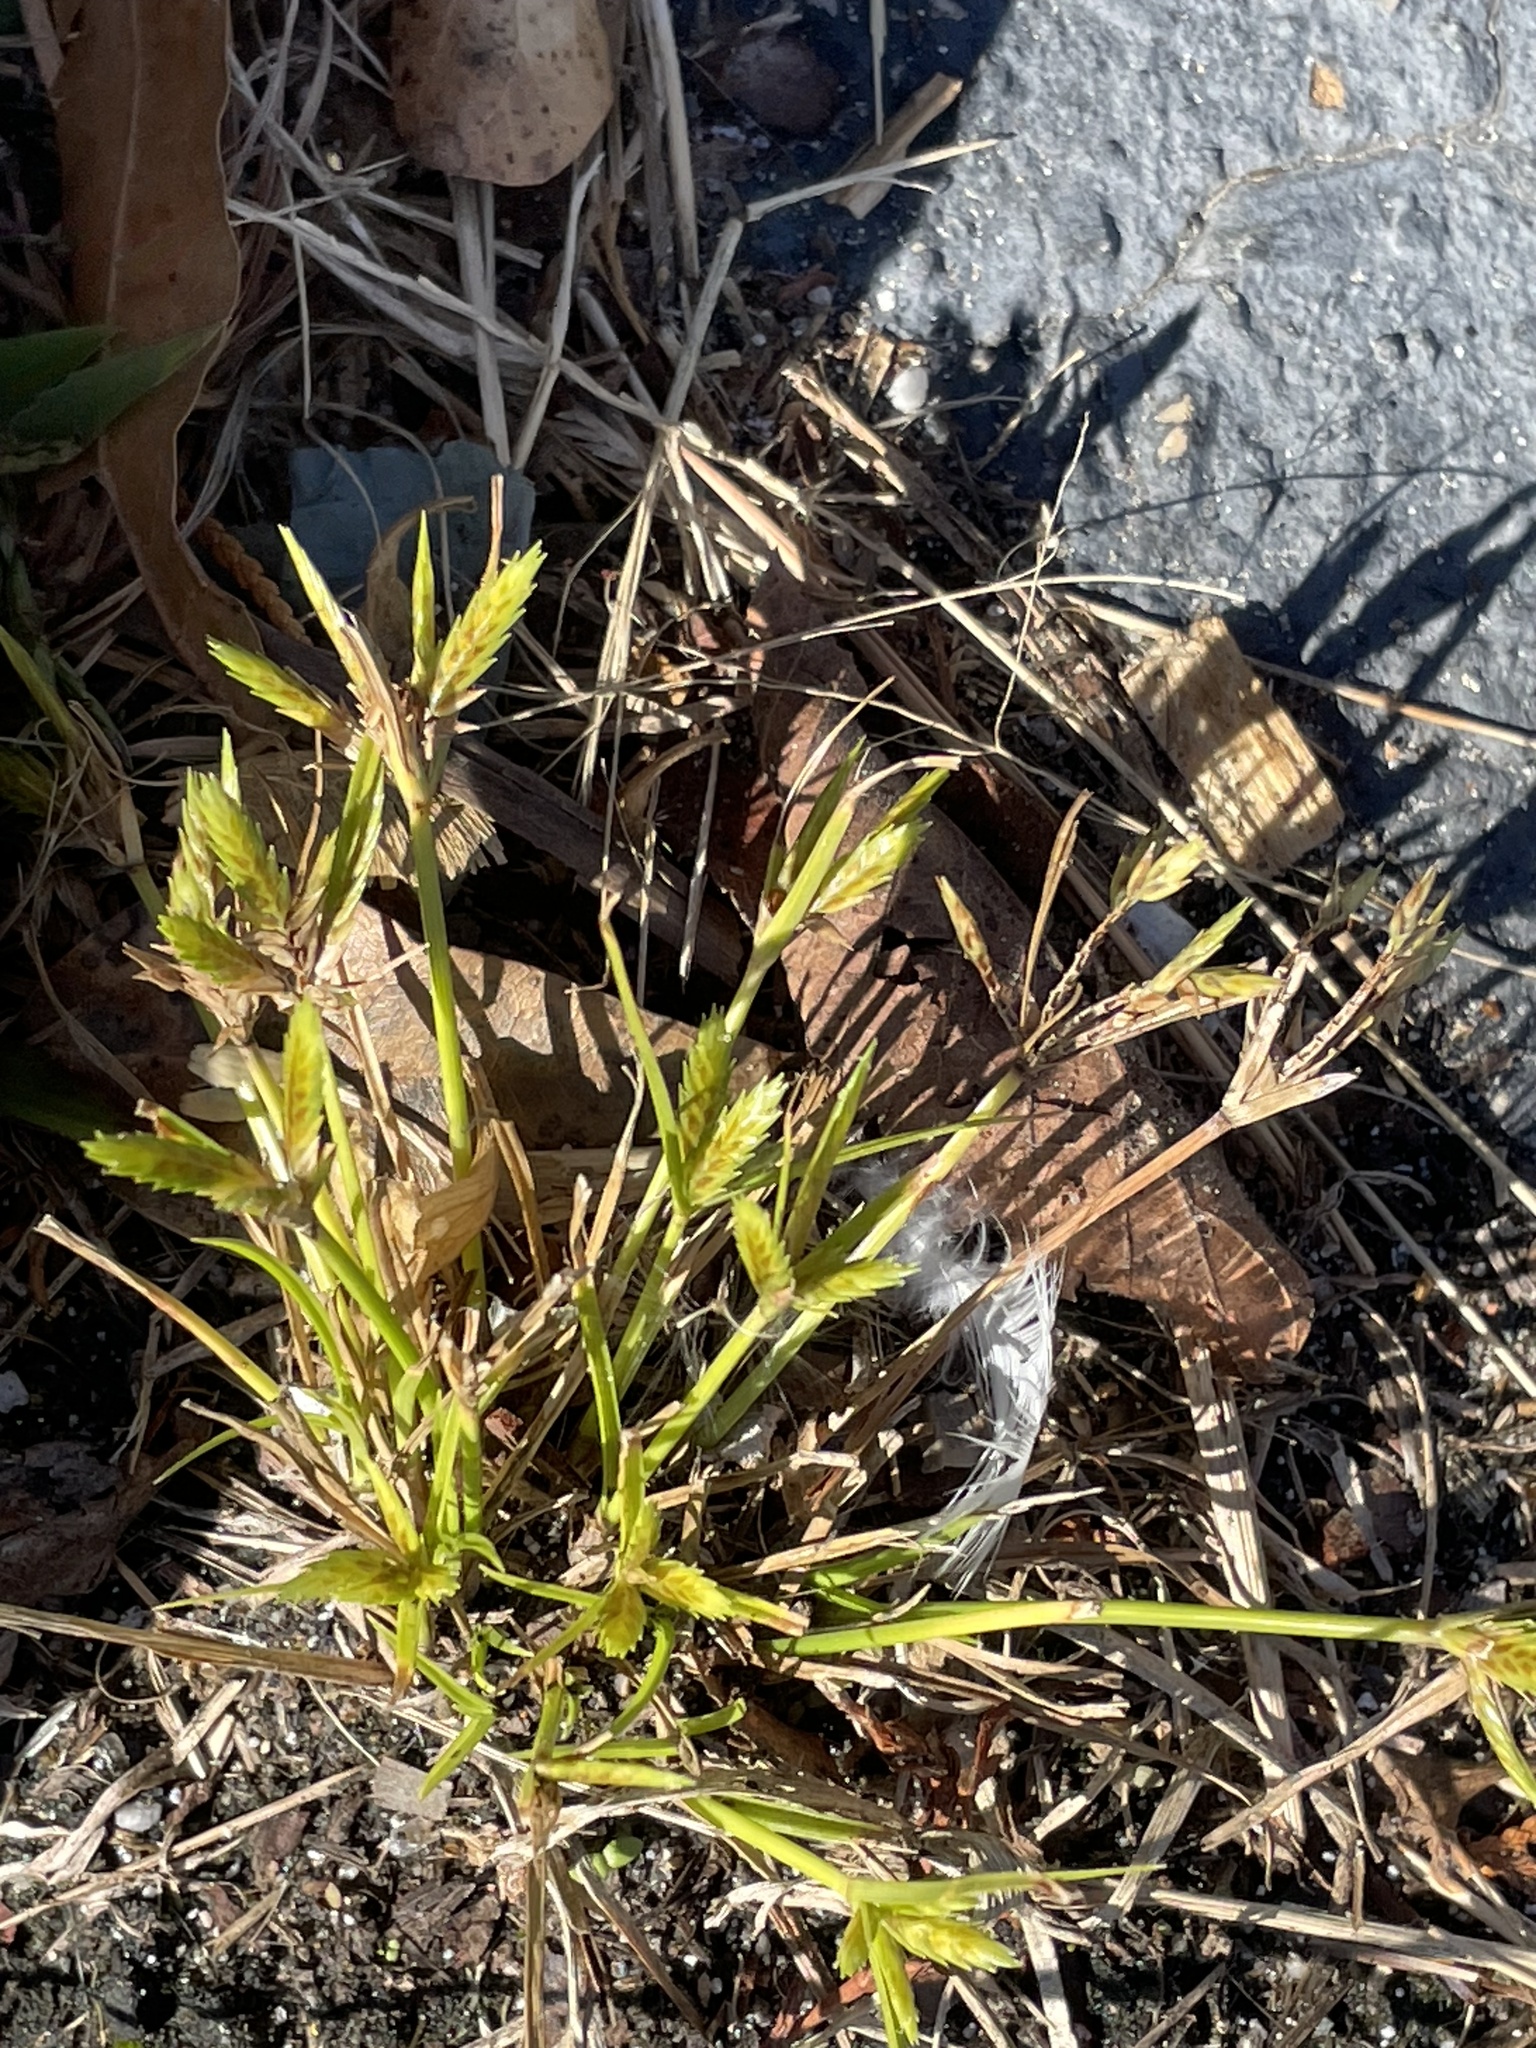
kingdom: Plantae
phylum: Tracheophyta
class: Liliopsida
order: Poales
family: Cyperaceae
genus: Cyperus
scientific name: Cyperus compressus
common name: Poorland flatsedge
